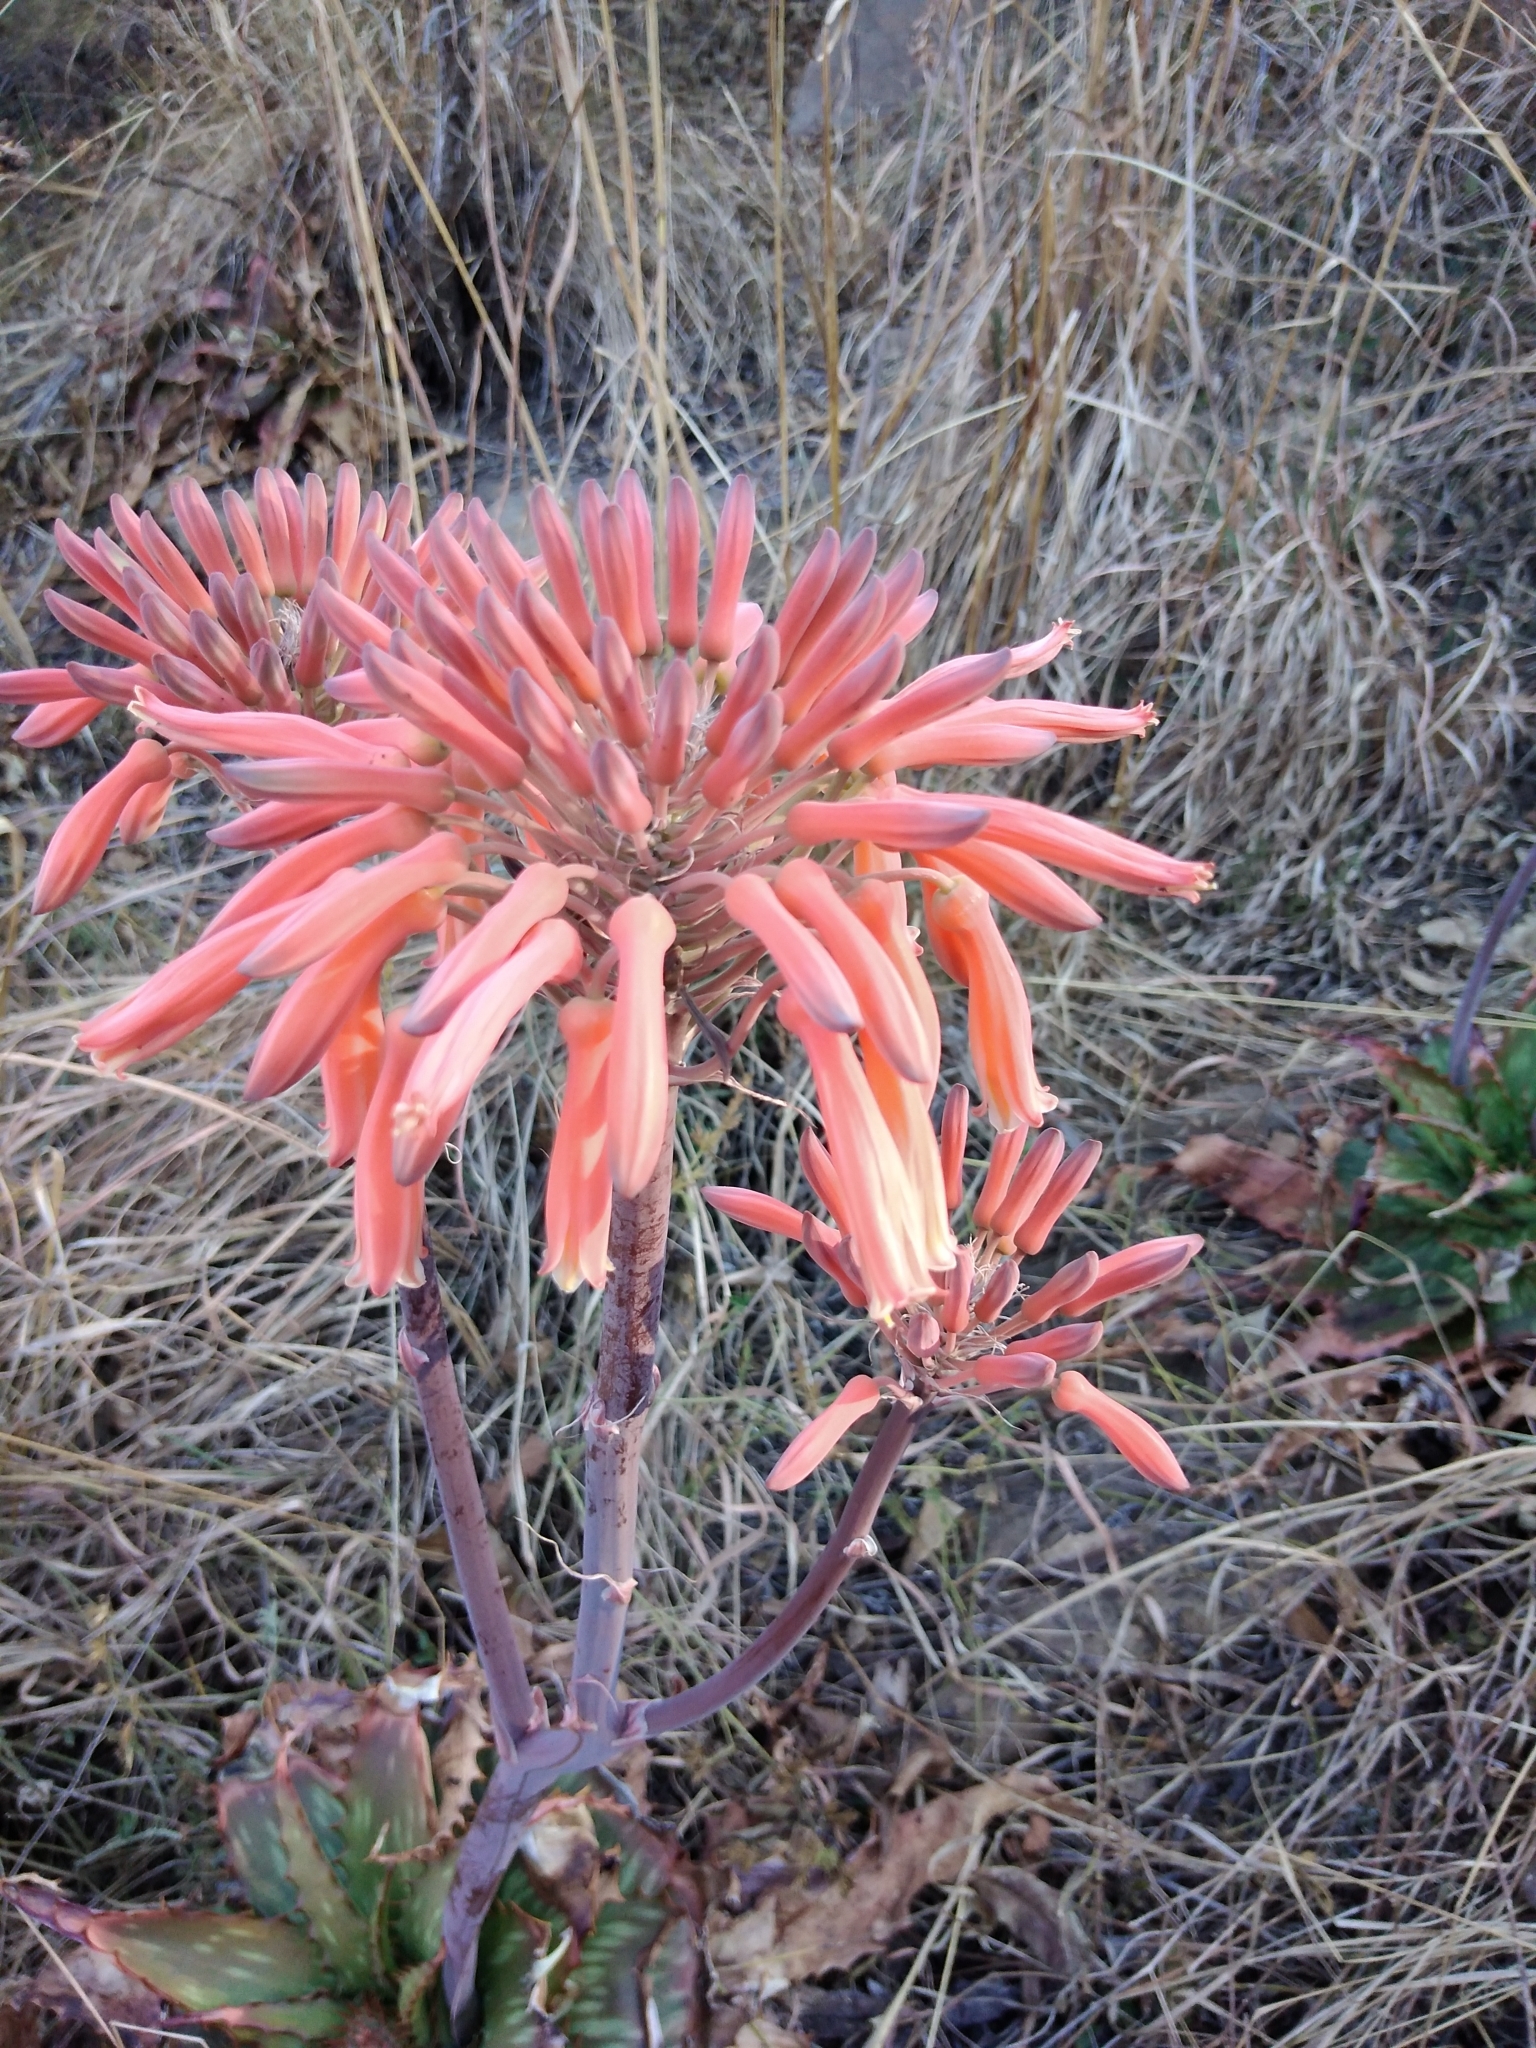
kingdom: Plantae
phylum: Tracheophyta
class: Liliopsida
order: Asparagales
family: Asphodelaceae
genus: Aloe
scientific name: Aloe maculata
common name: Broadleaf aloe
